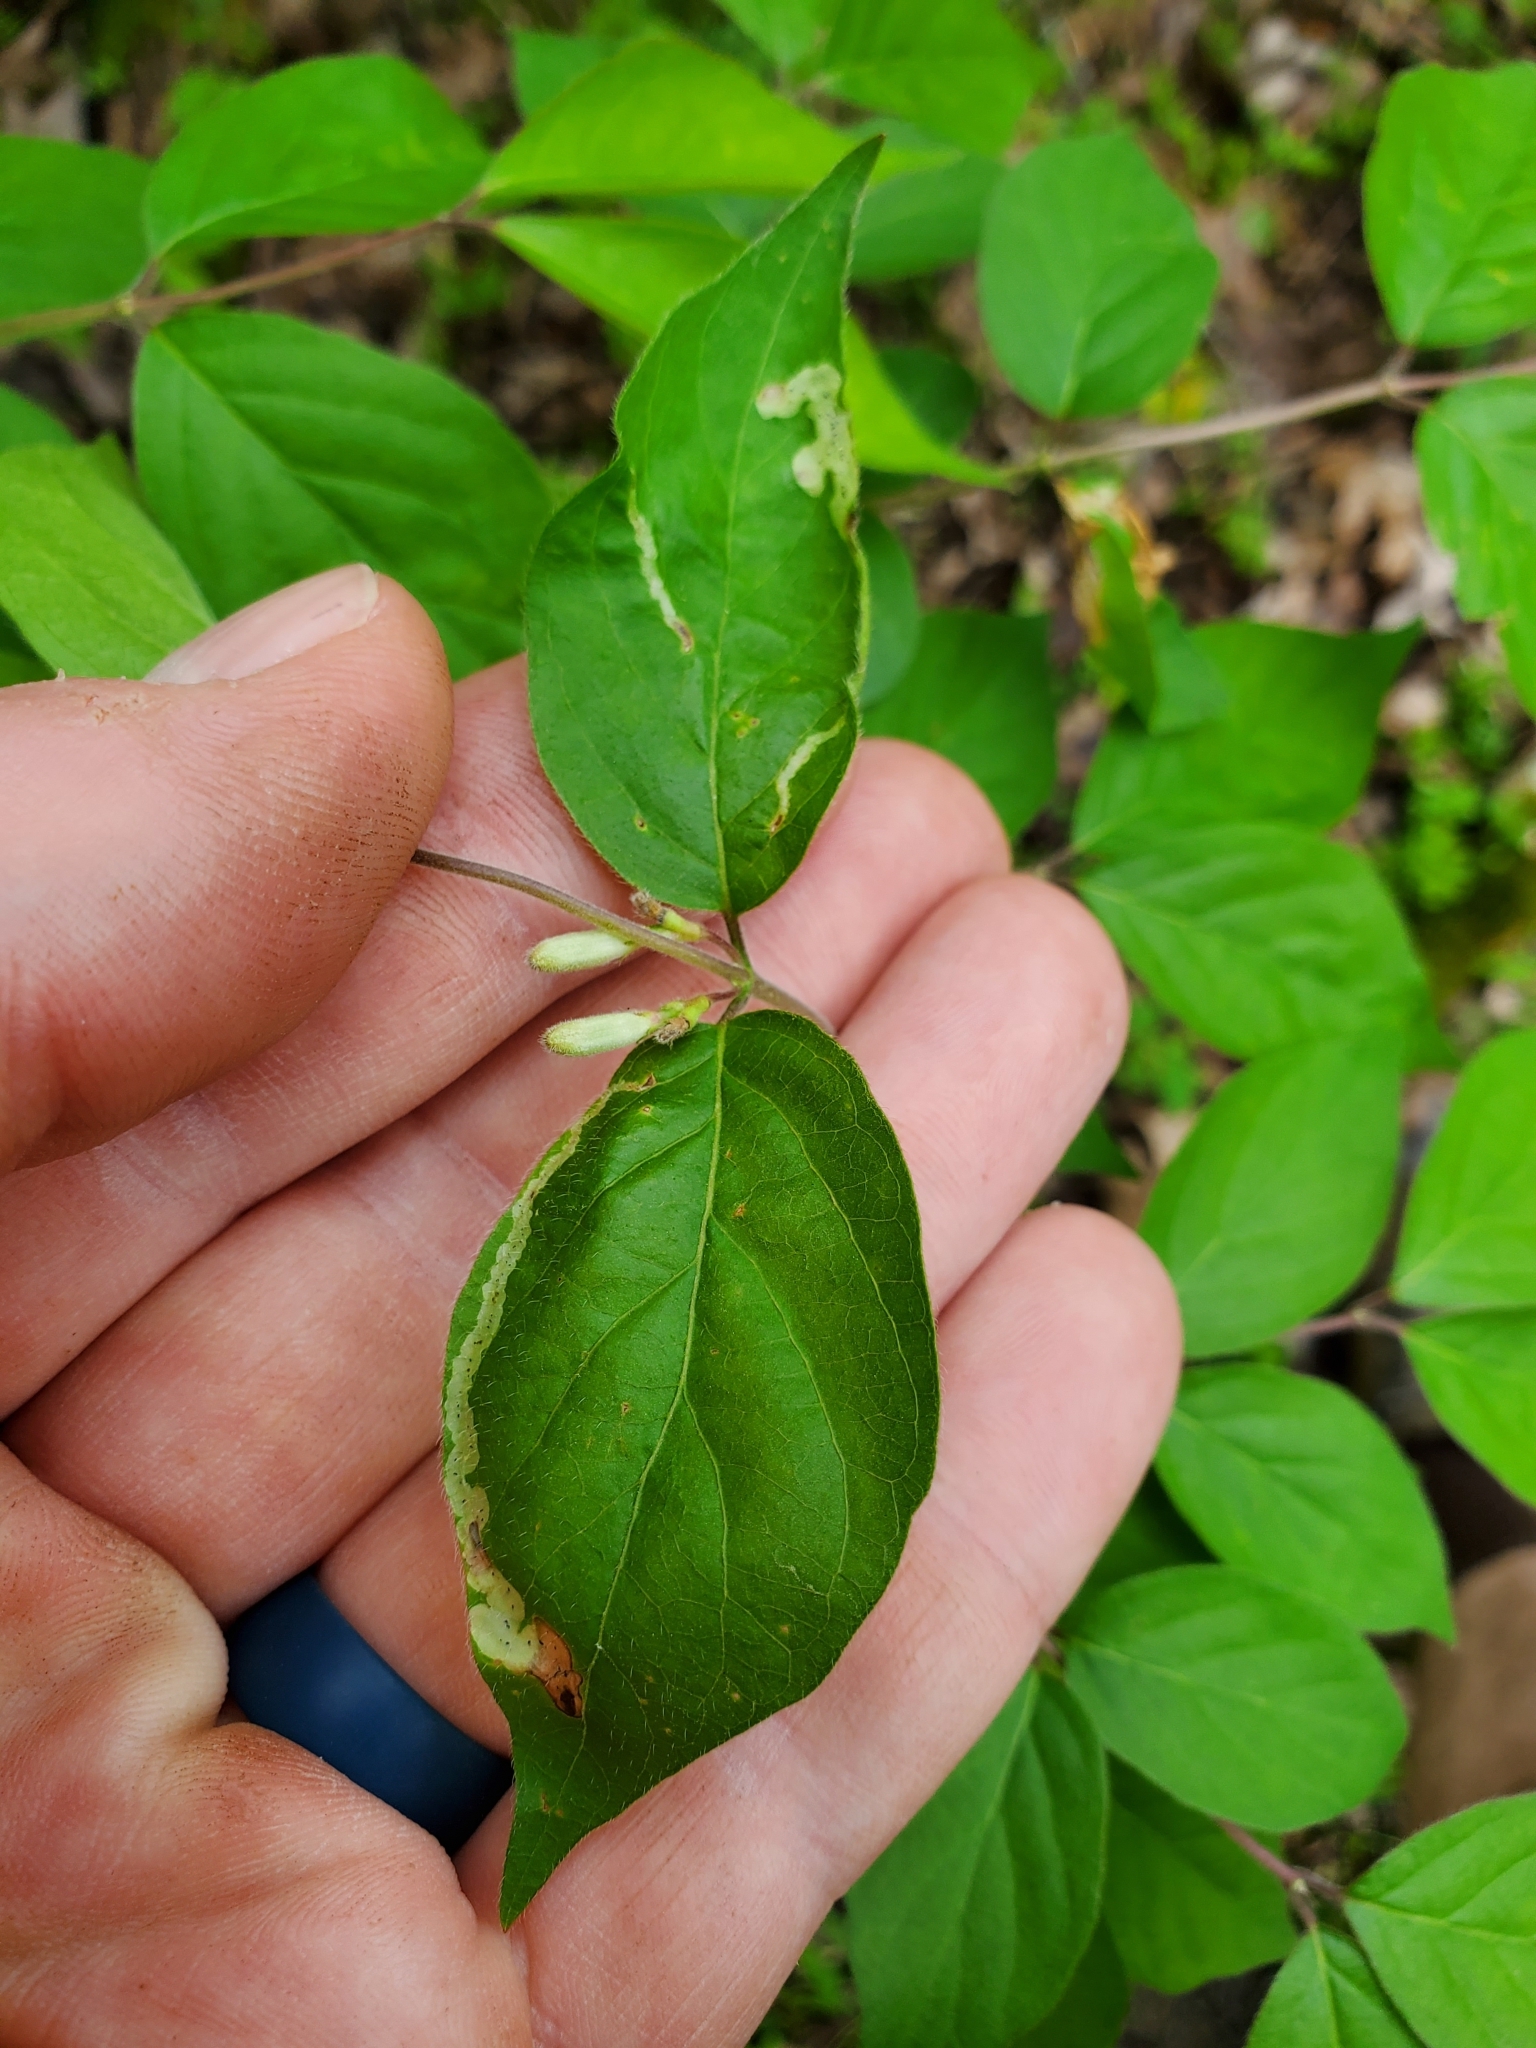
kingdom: Animalia
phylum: Arthropoda
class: Insecta
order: Diptera
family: Agromyzidae
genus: Aulagromyza
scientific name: Aulagromyza cornigera
